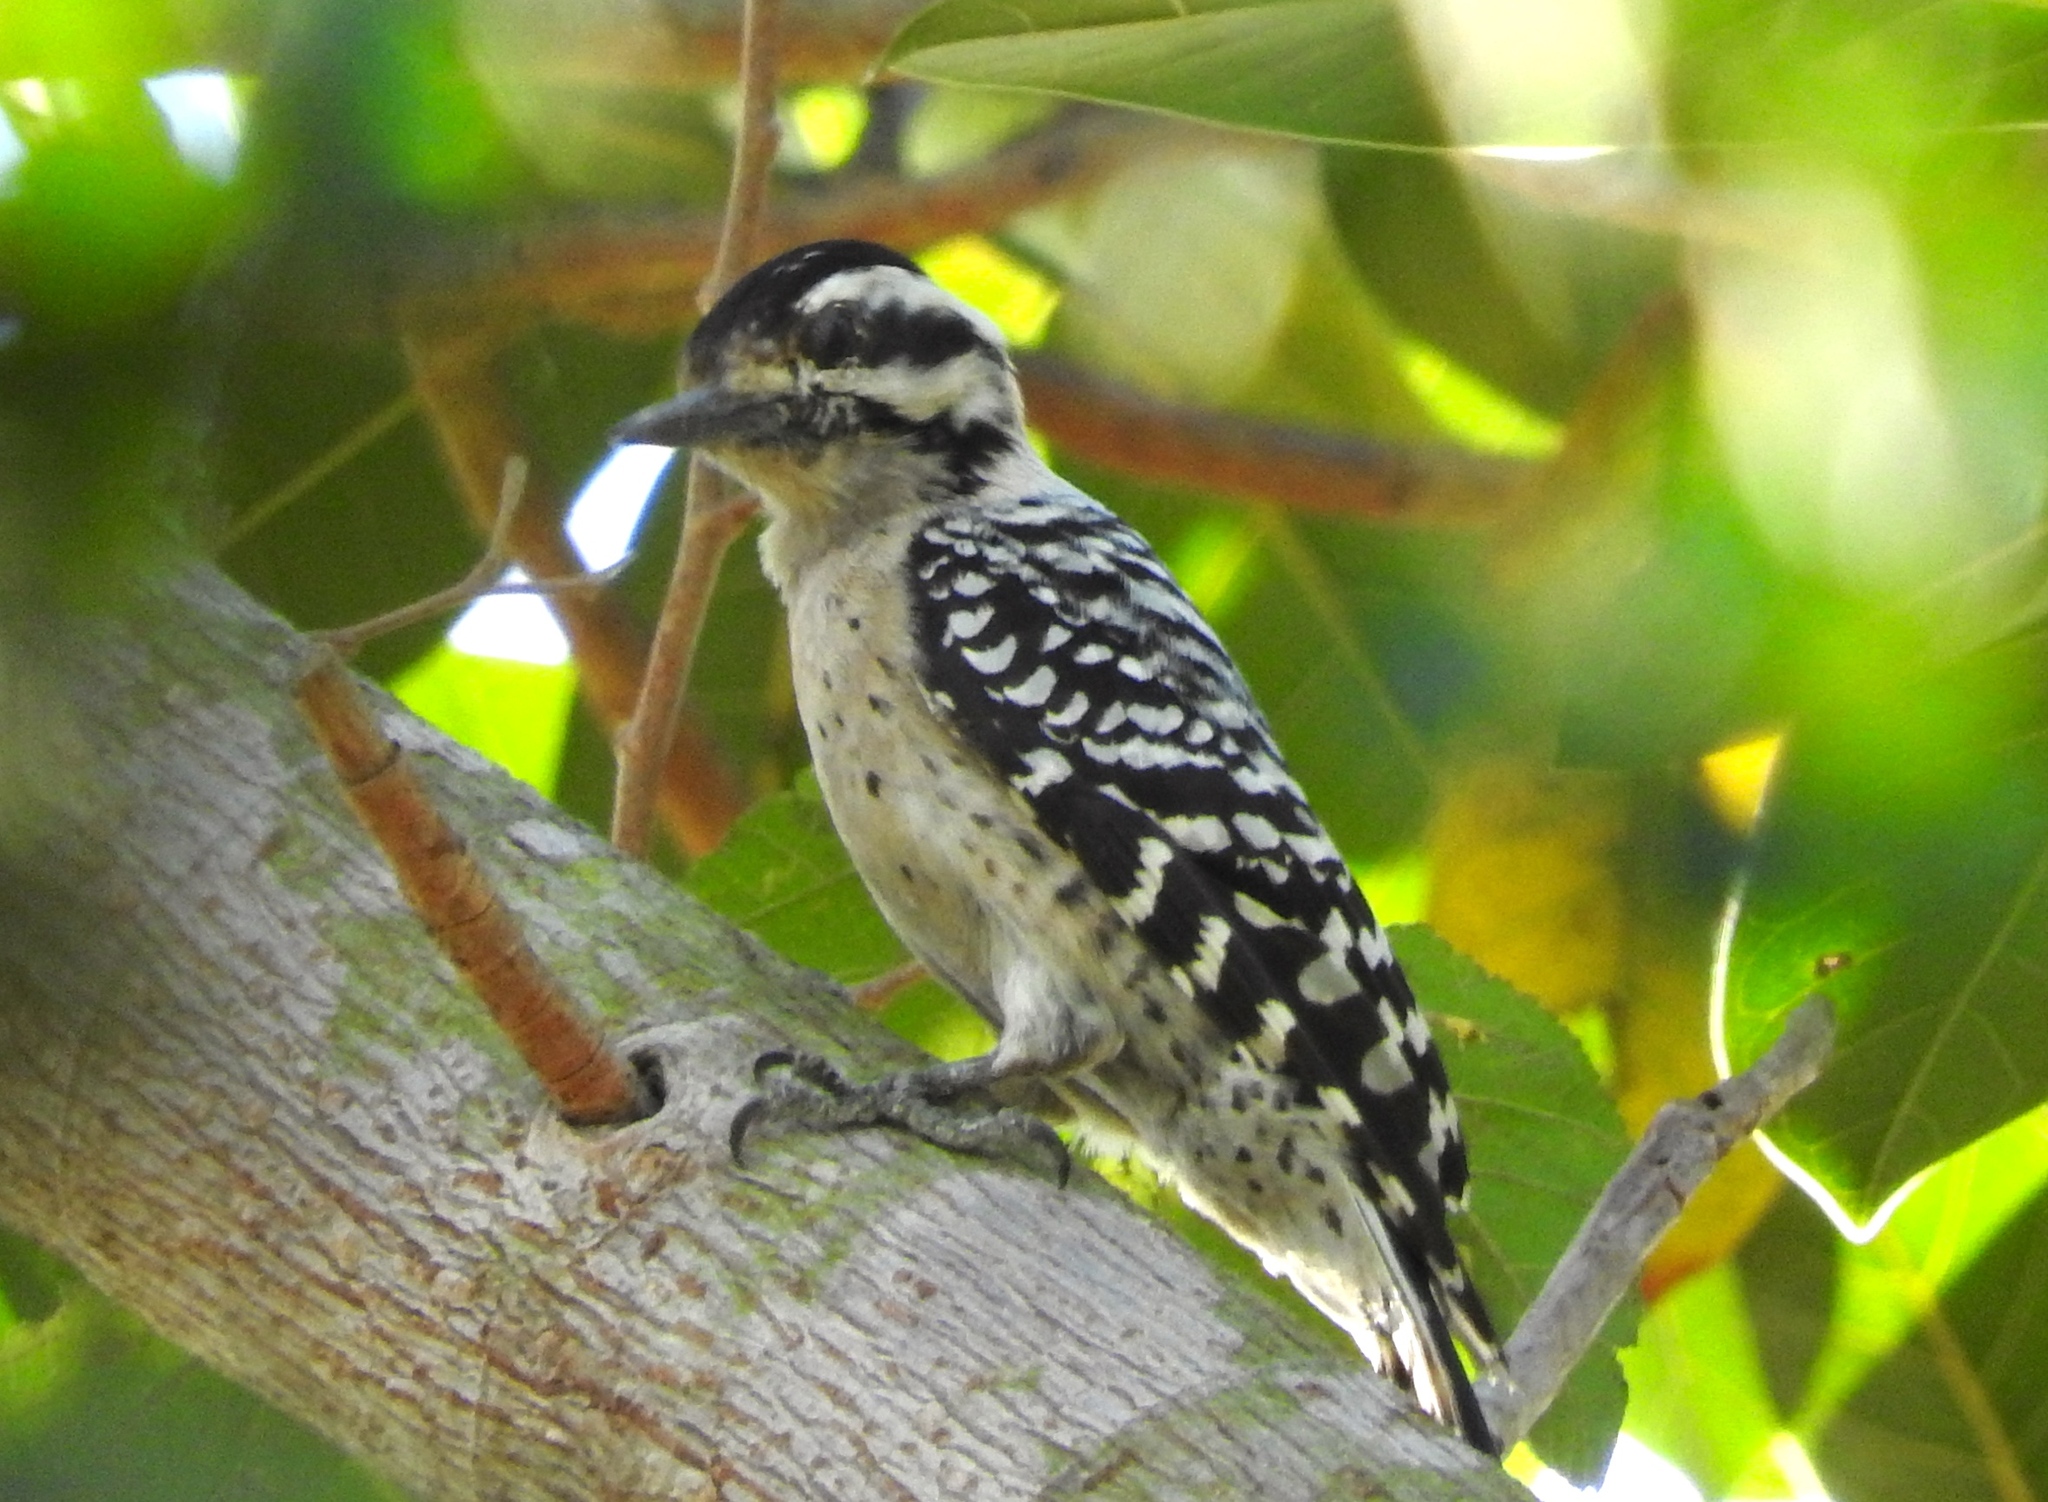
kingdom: Animalia
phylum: Chordata
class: Aves
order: Piciformes
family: Picidae
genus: Dryobates
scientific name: Dryobates scalaris
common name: Ladder-backed woodpecker
